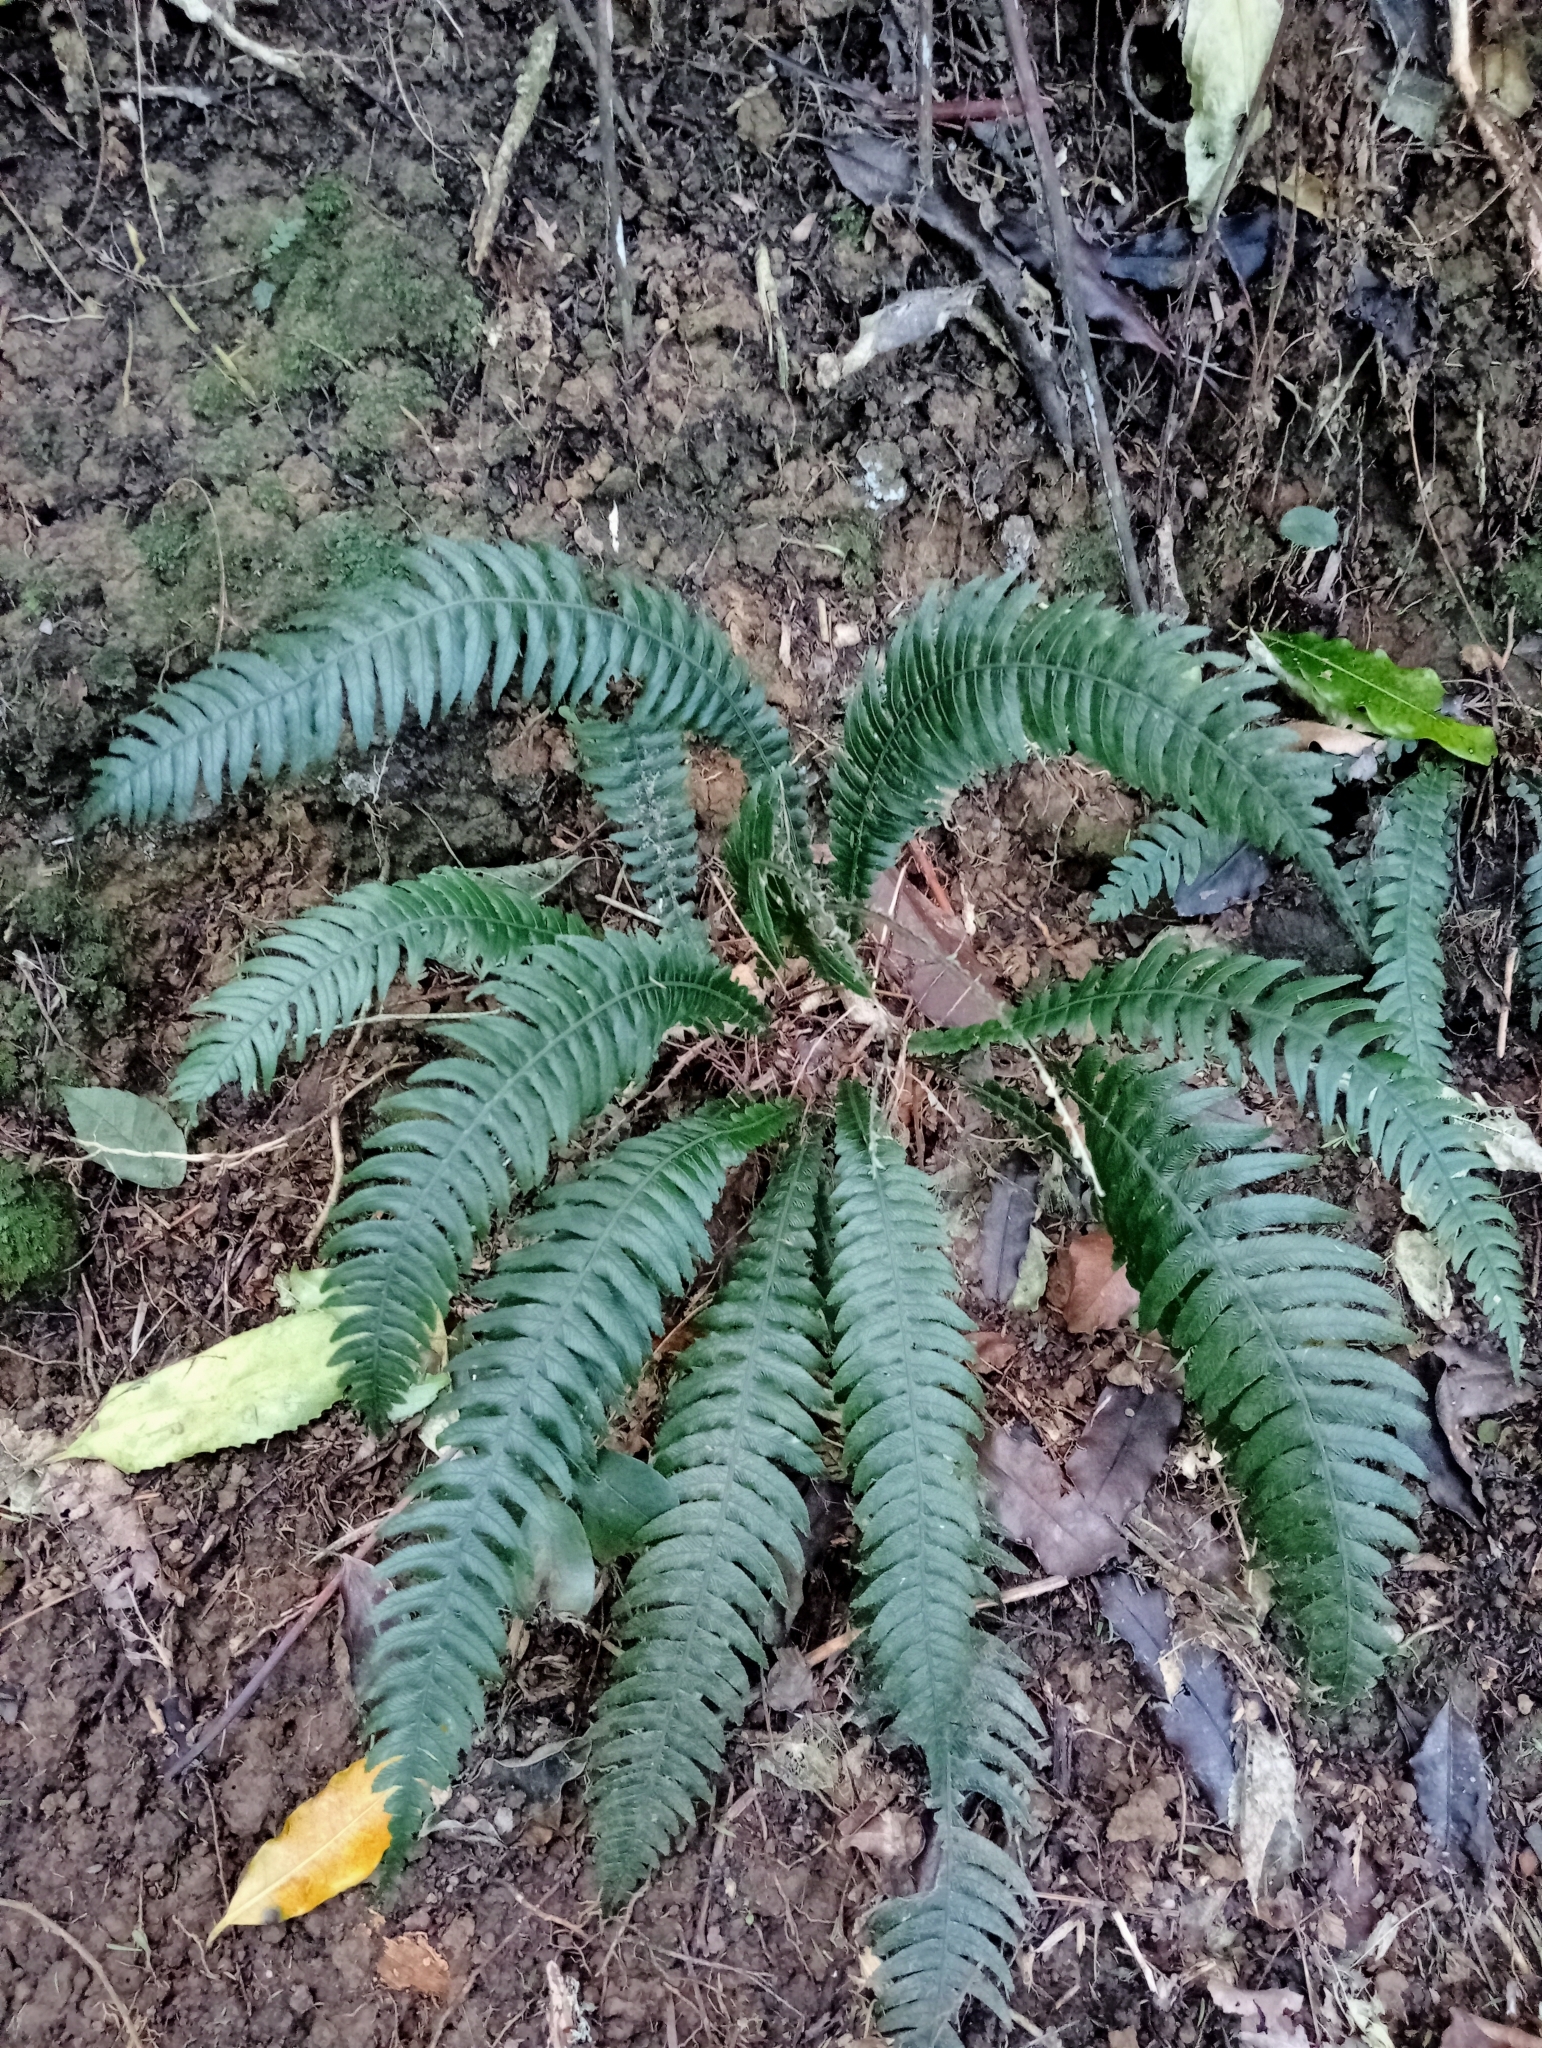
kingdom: Plantae
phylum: Tracheophyta
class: Polypodiopsida
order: Polypodiales
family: Blechnaceae
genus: Austroblechnum
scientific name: Austroblechnum lanceolatum
